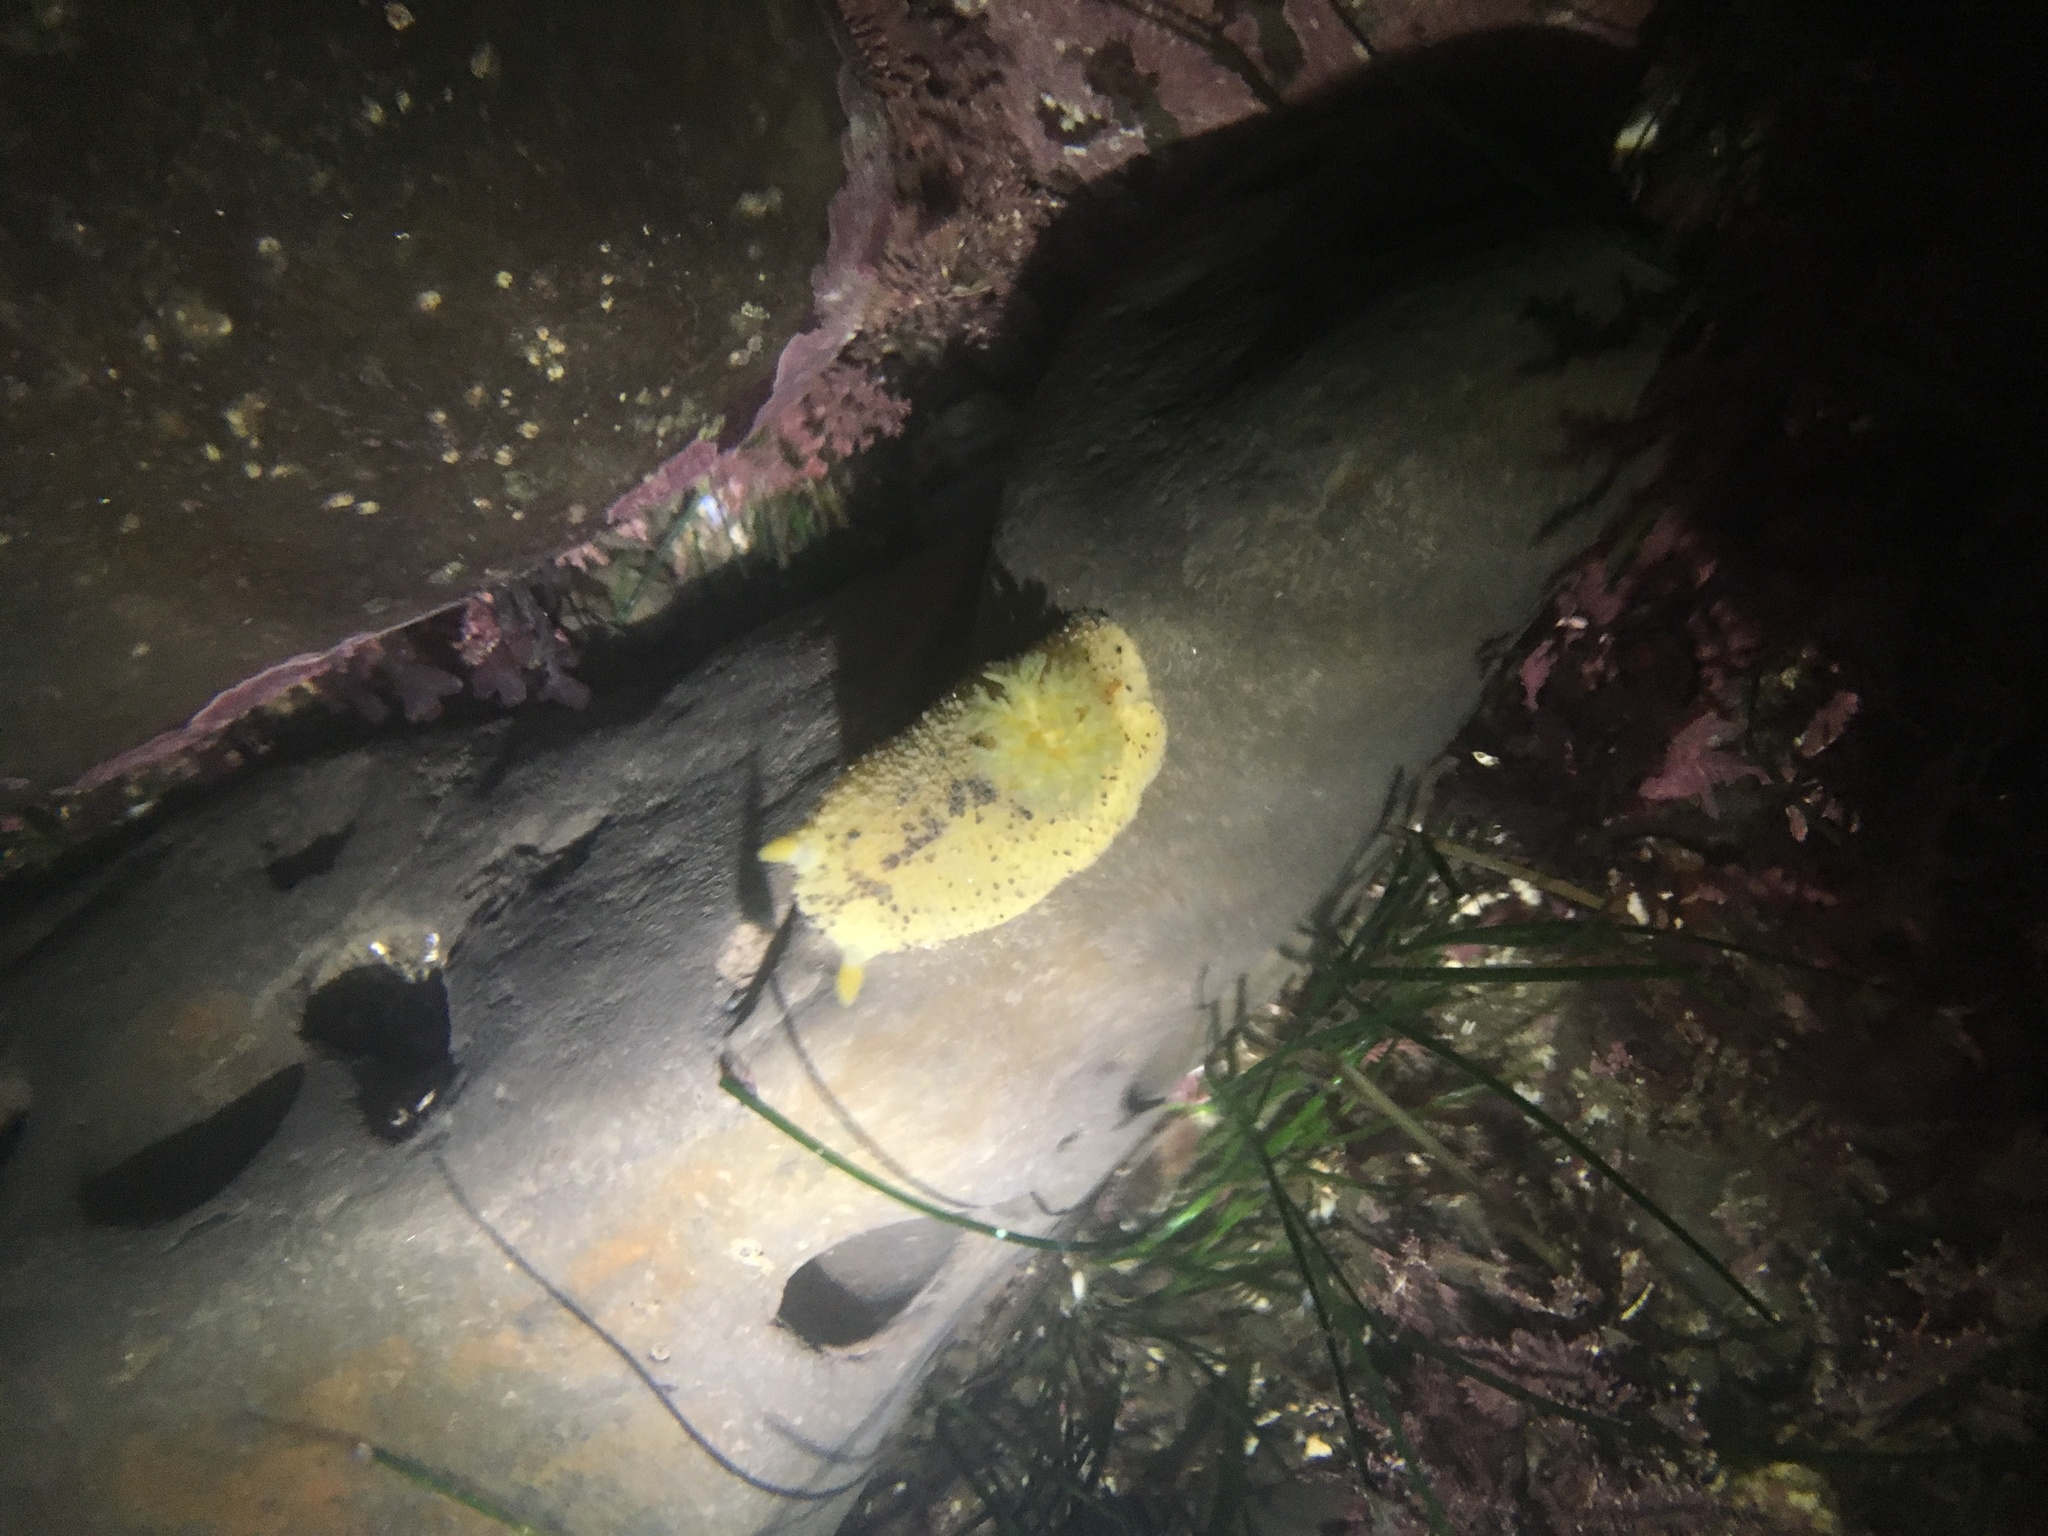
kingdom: Animalia
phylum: Mollusca
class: Gastropoda
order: Nudibranchia
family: Dorididae
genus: Doris
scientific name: Doris montereyensis
